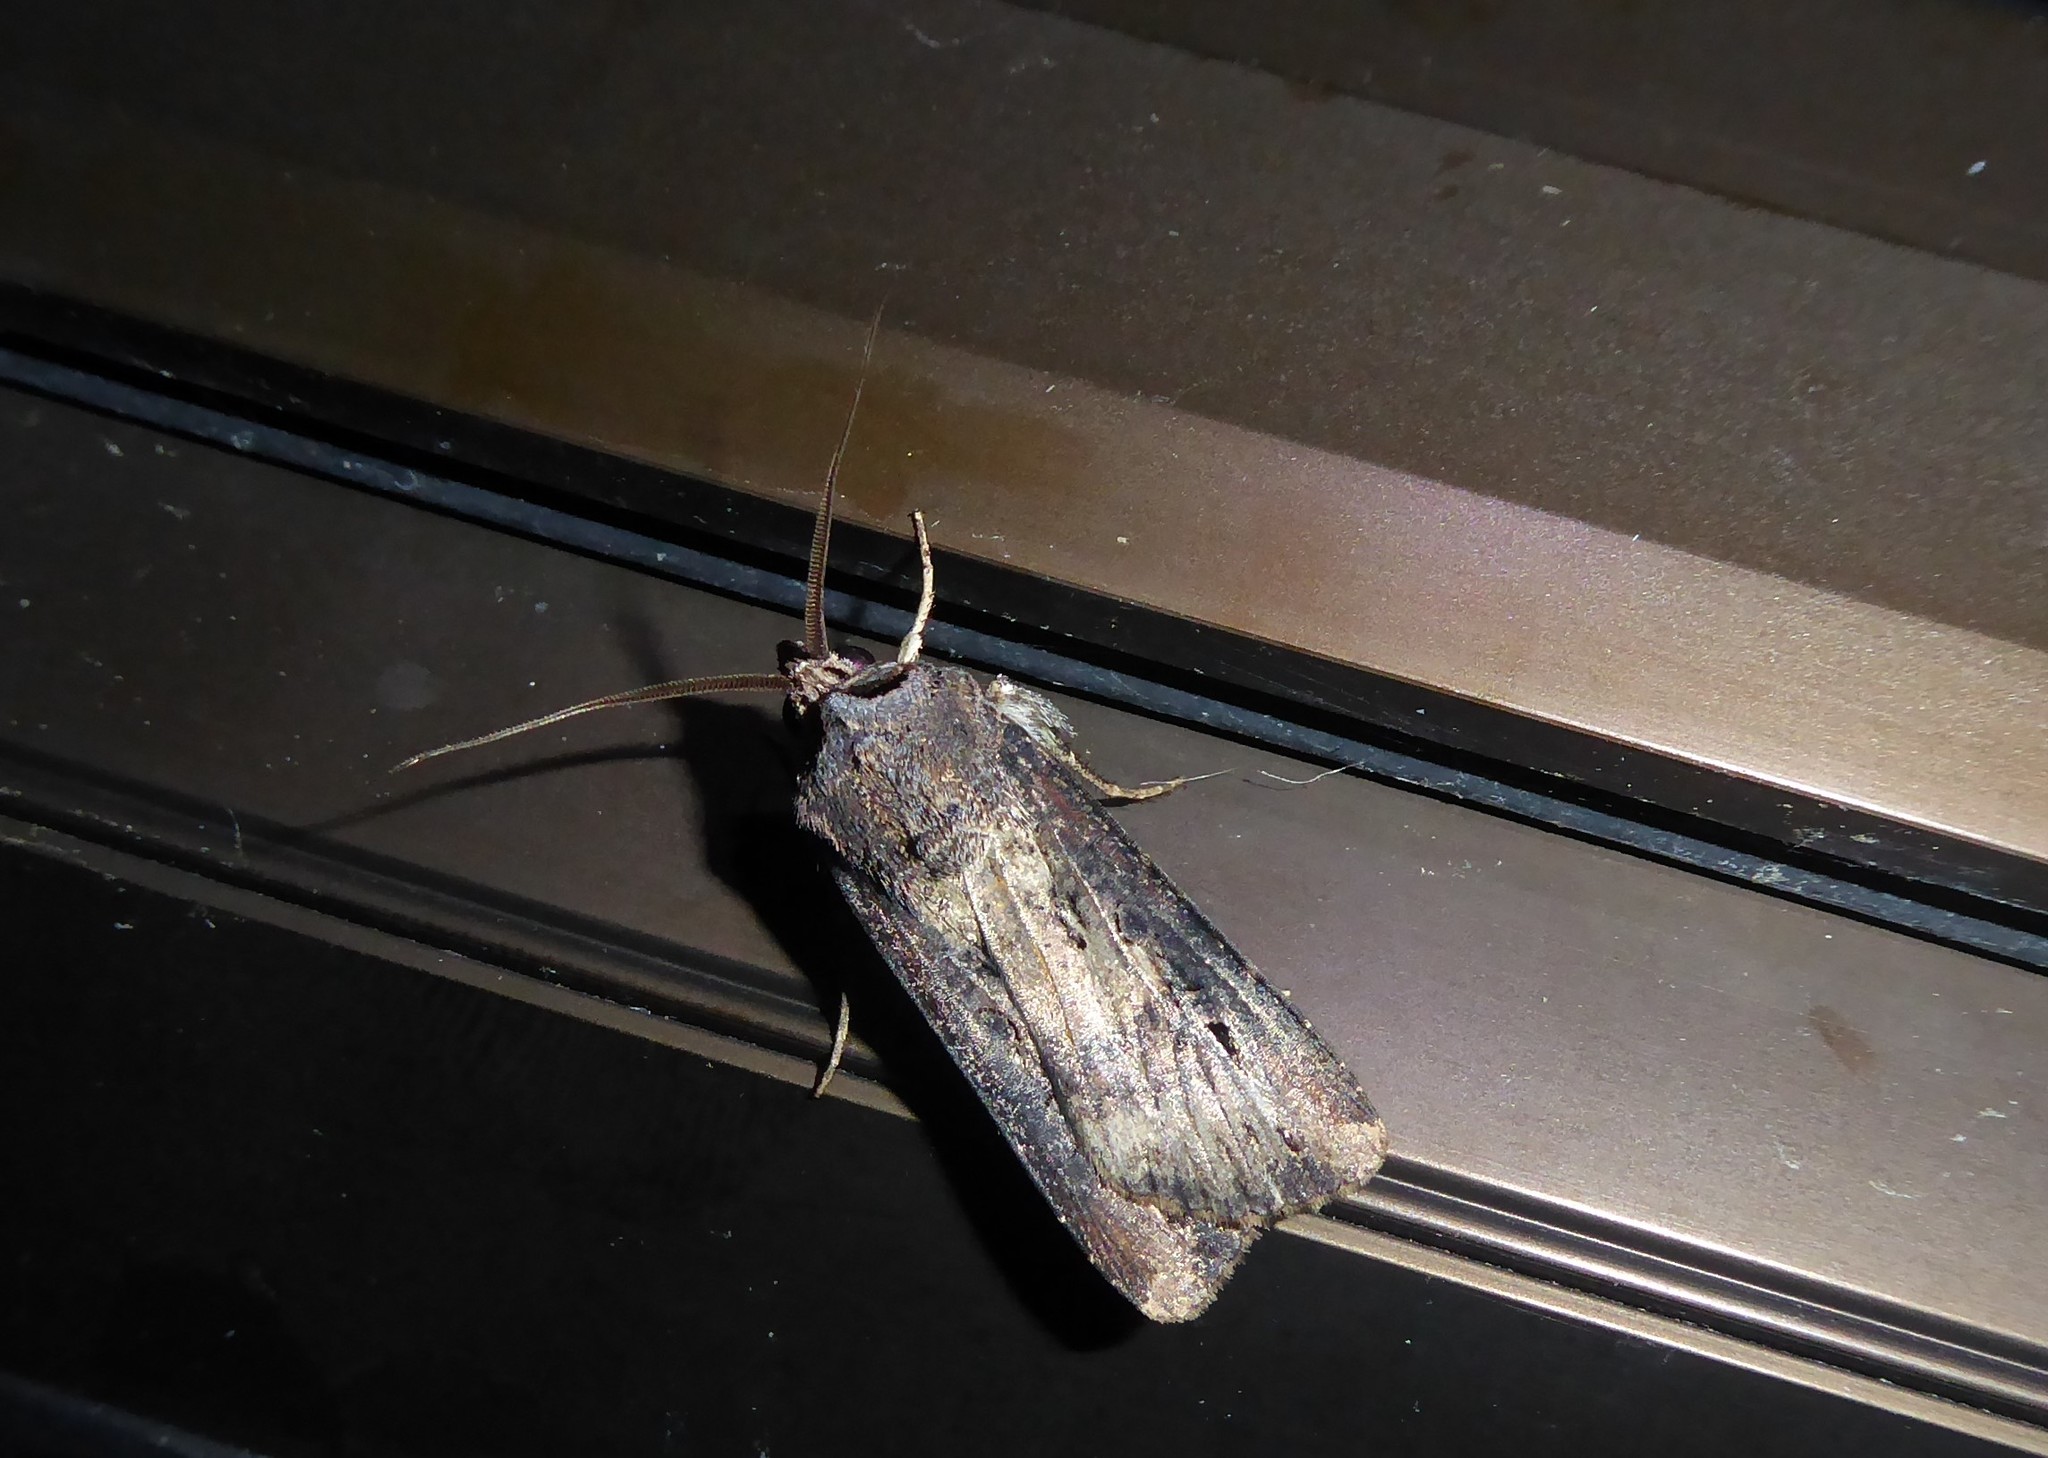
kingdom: Animalia
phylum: Arthropoda
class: Insecta
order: Lepidoptera
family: Noctuidae
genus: Agrotis
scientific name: Agrotis ipsilon
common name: Dark sword-grass
